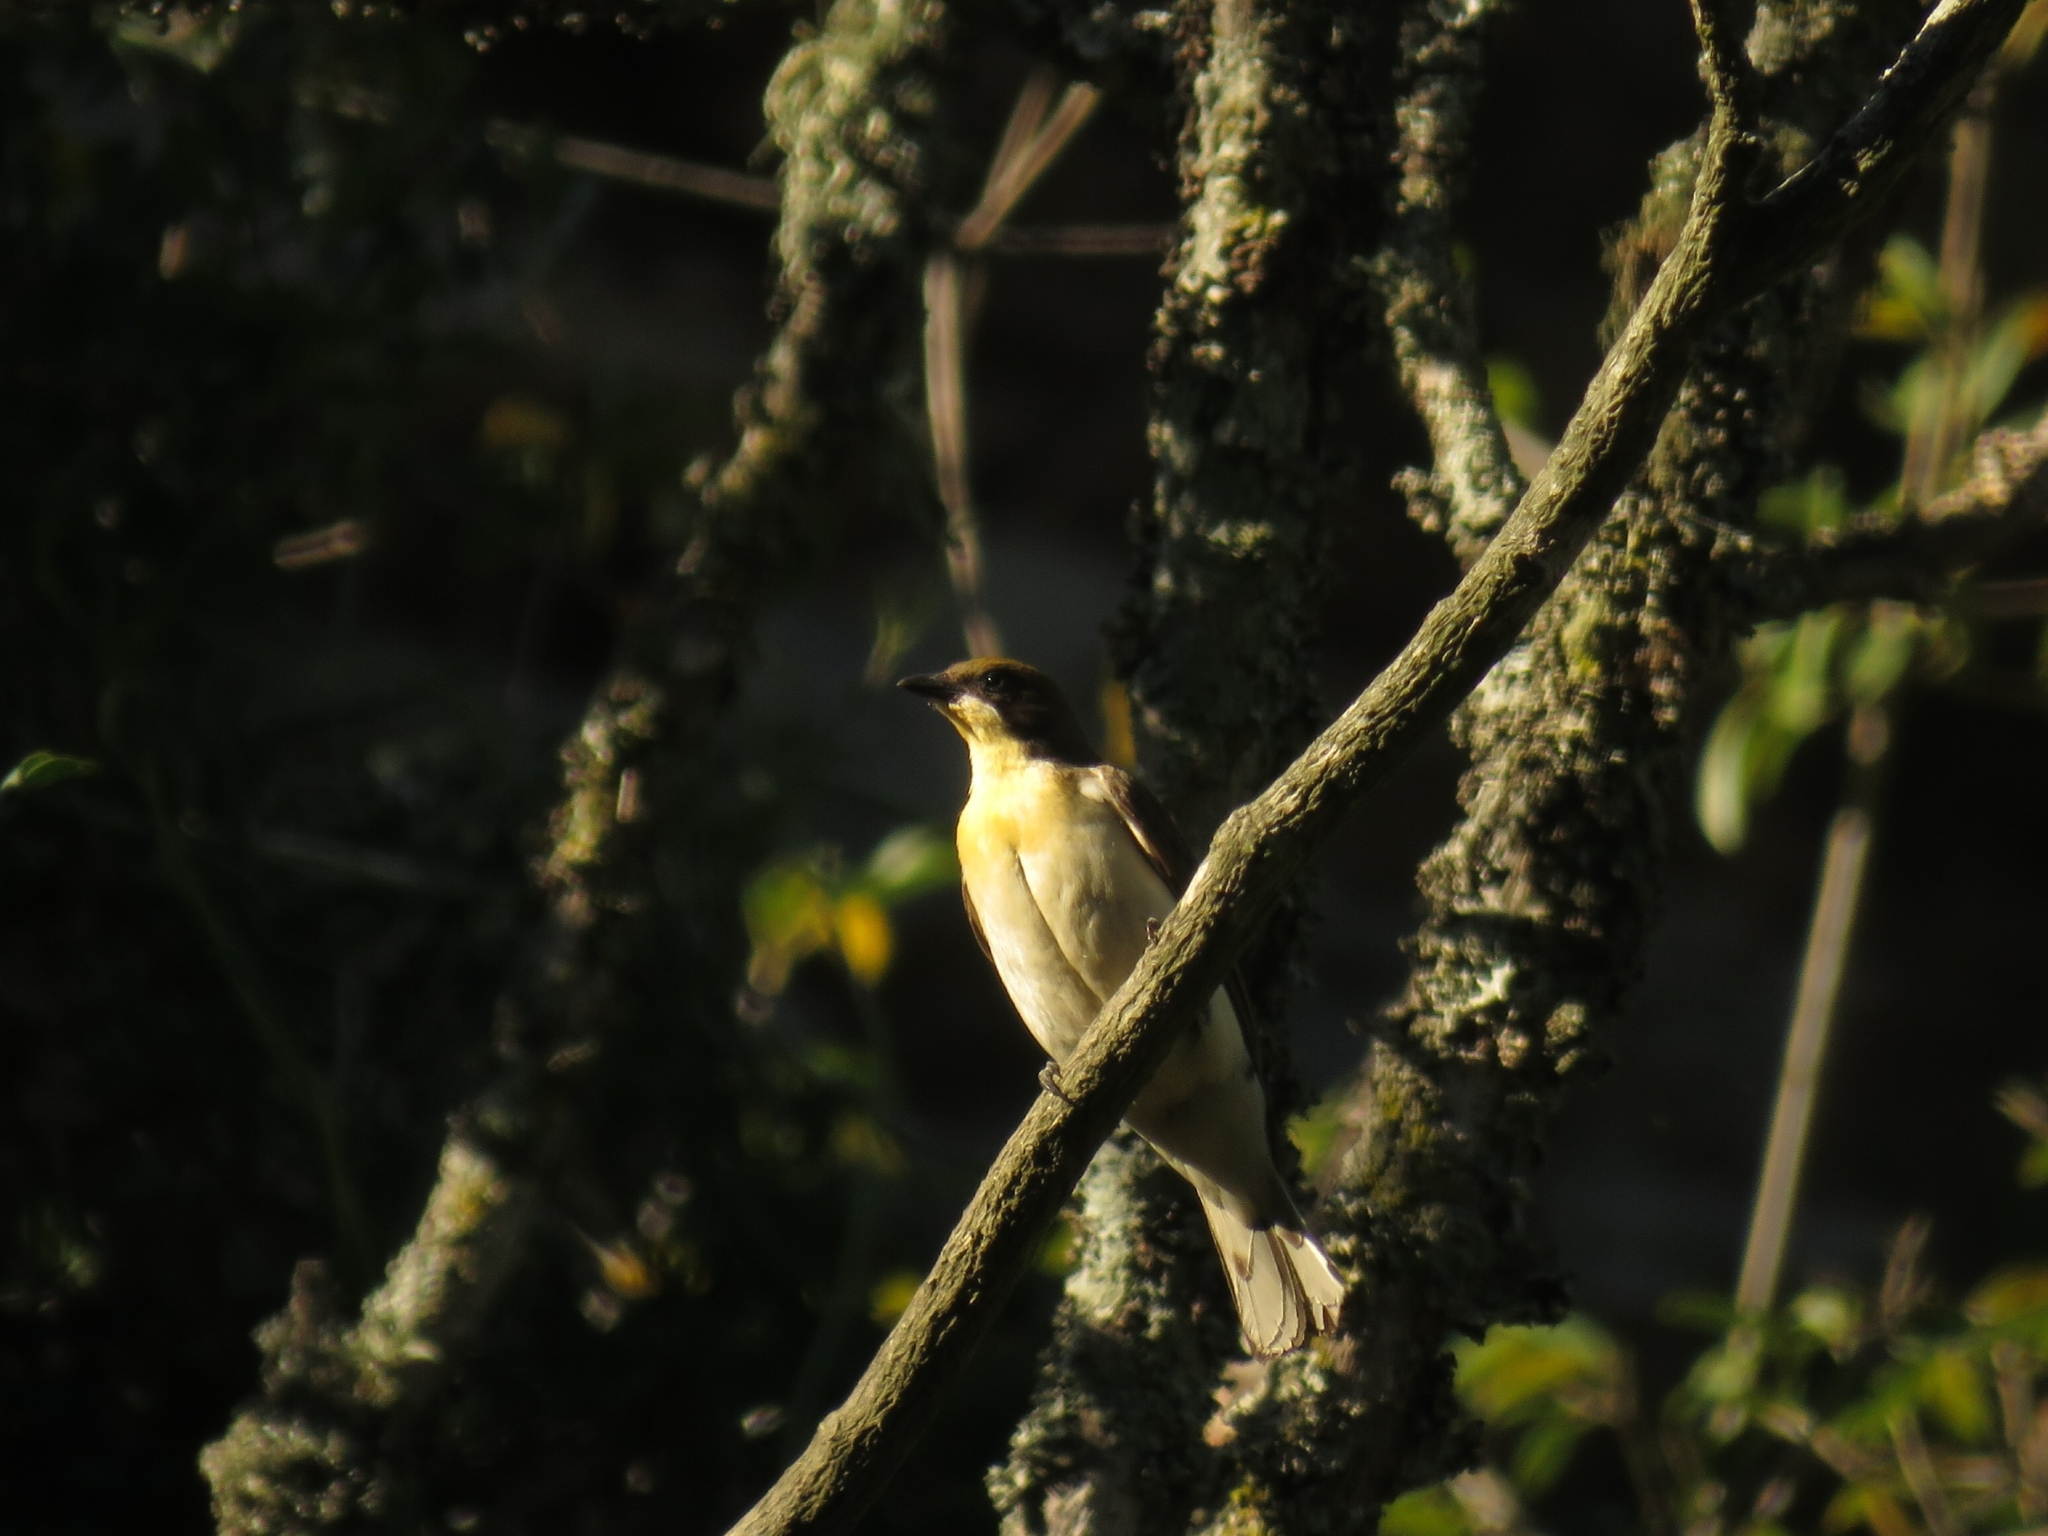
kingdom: Animalia
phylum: Chordata
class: Aves
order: Piciformes
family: Indicatoridae
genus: Indicator
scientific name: Indicator indicator
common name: Greater honeyguide
